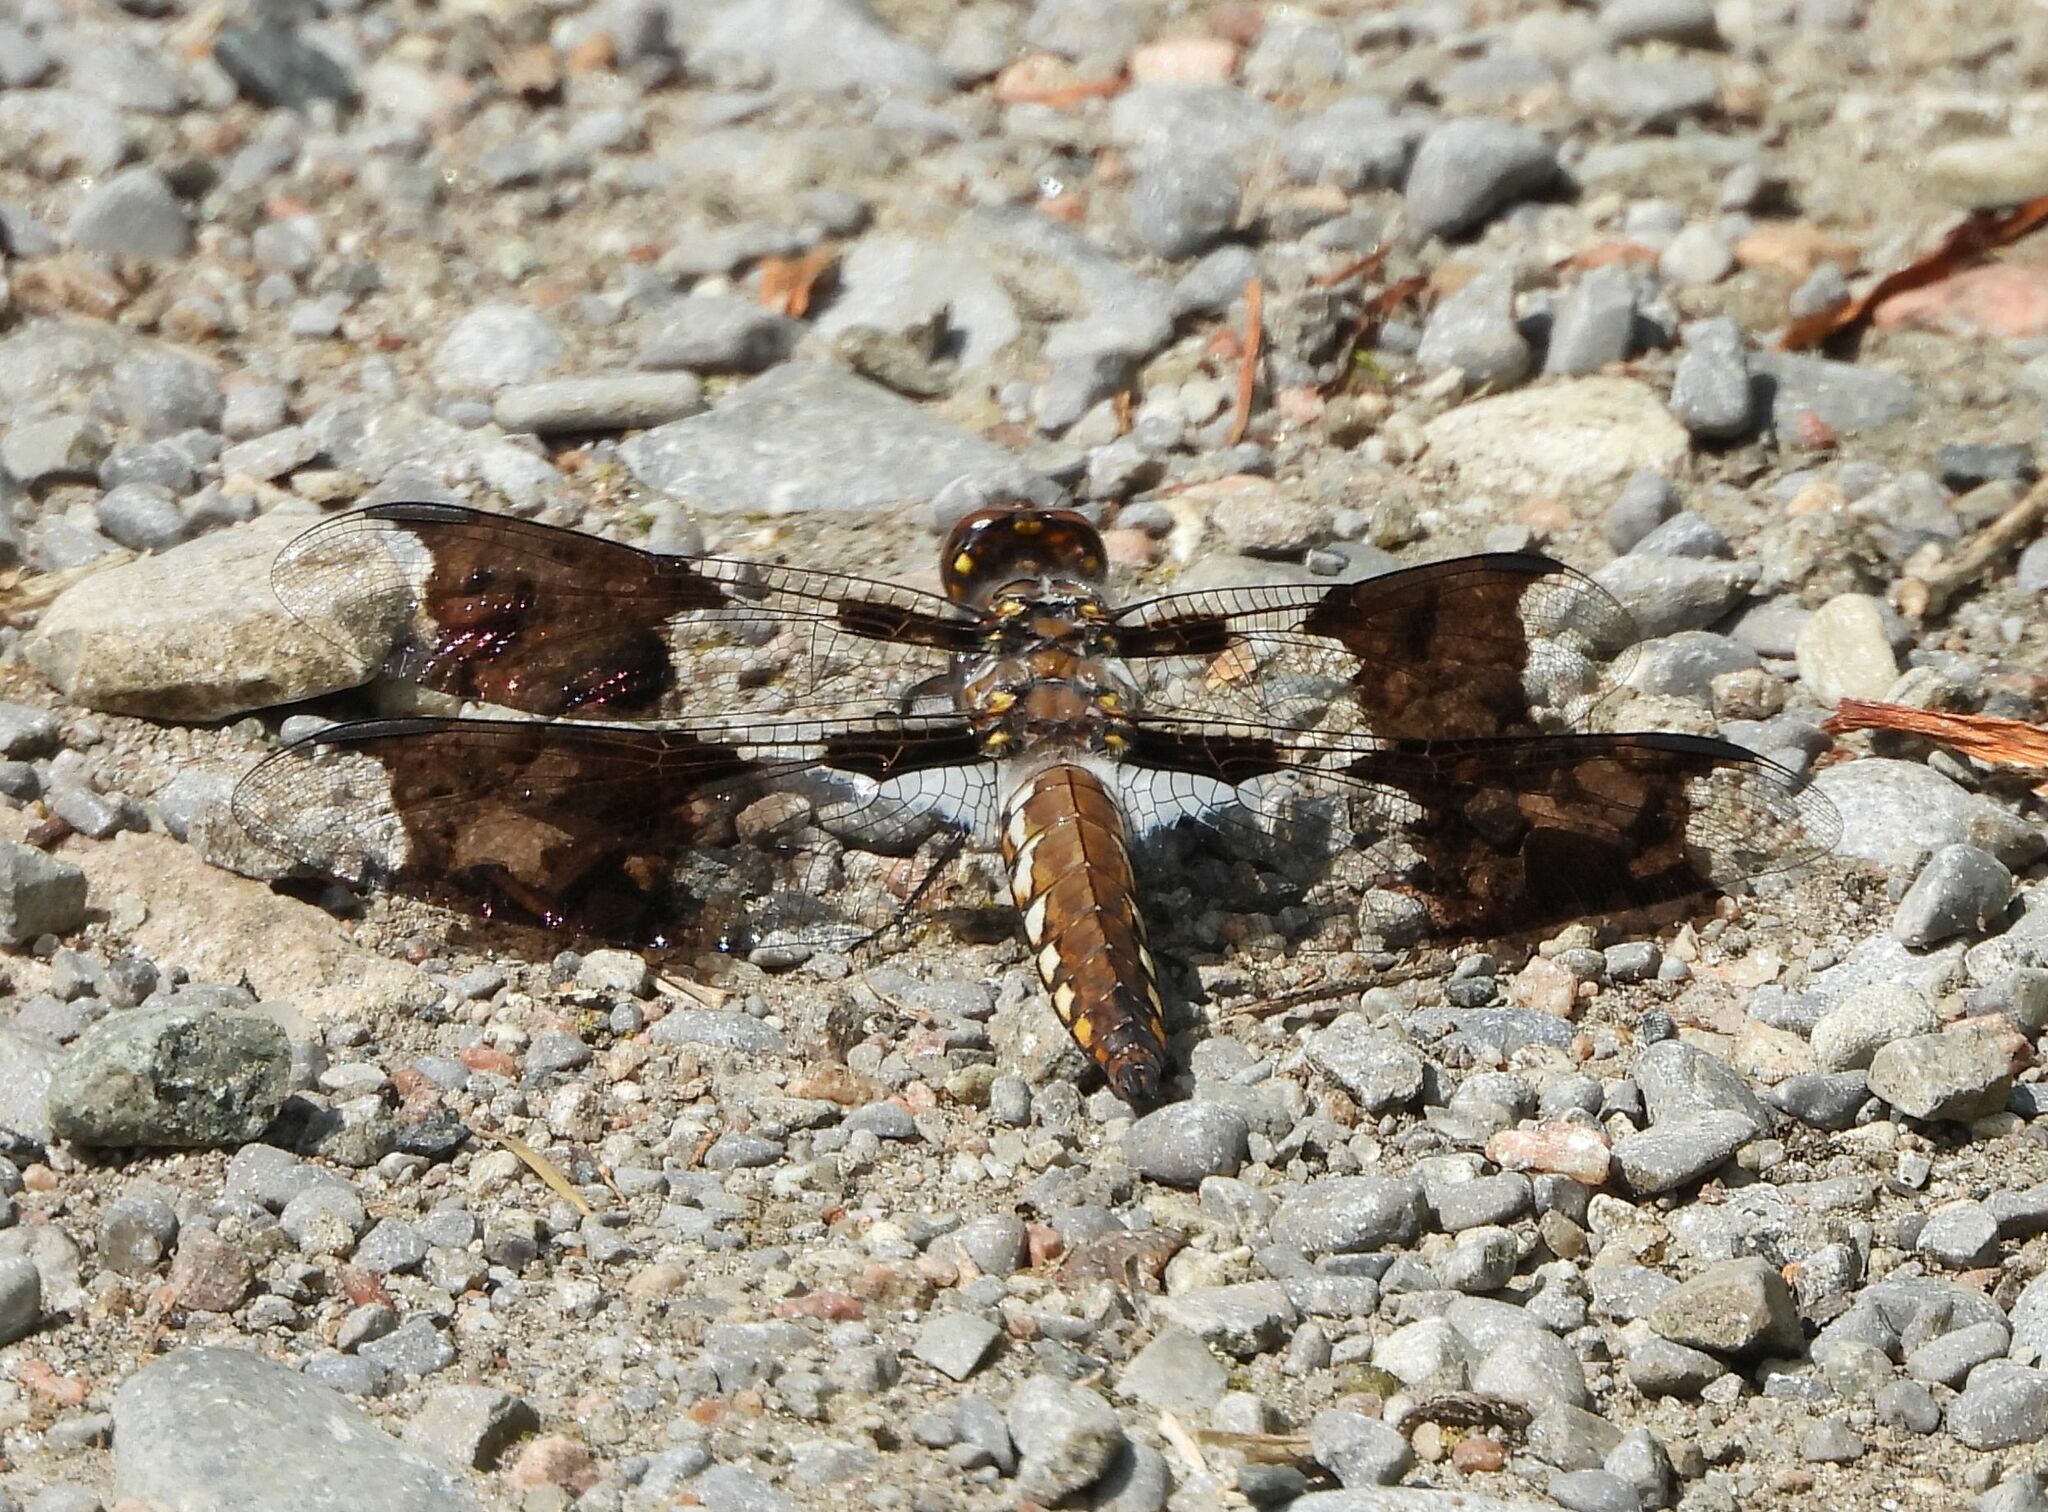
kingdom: Animalia
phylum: Arthropoda
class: Insecta
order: Odonata
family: Libellulidae
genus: Plathemis
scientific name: Plathemis lydia
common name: Common whitetail
